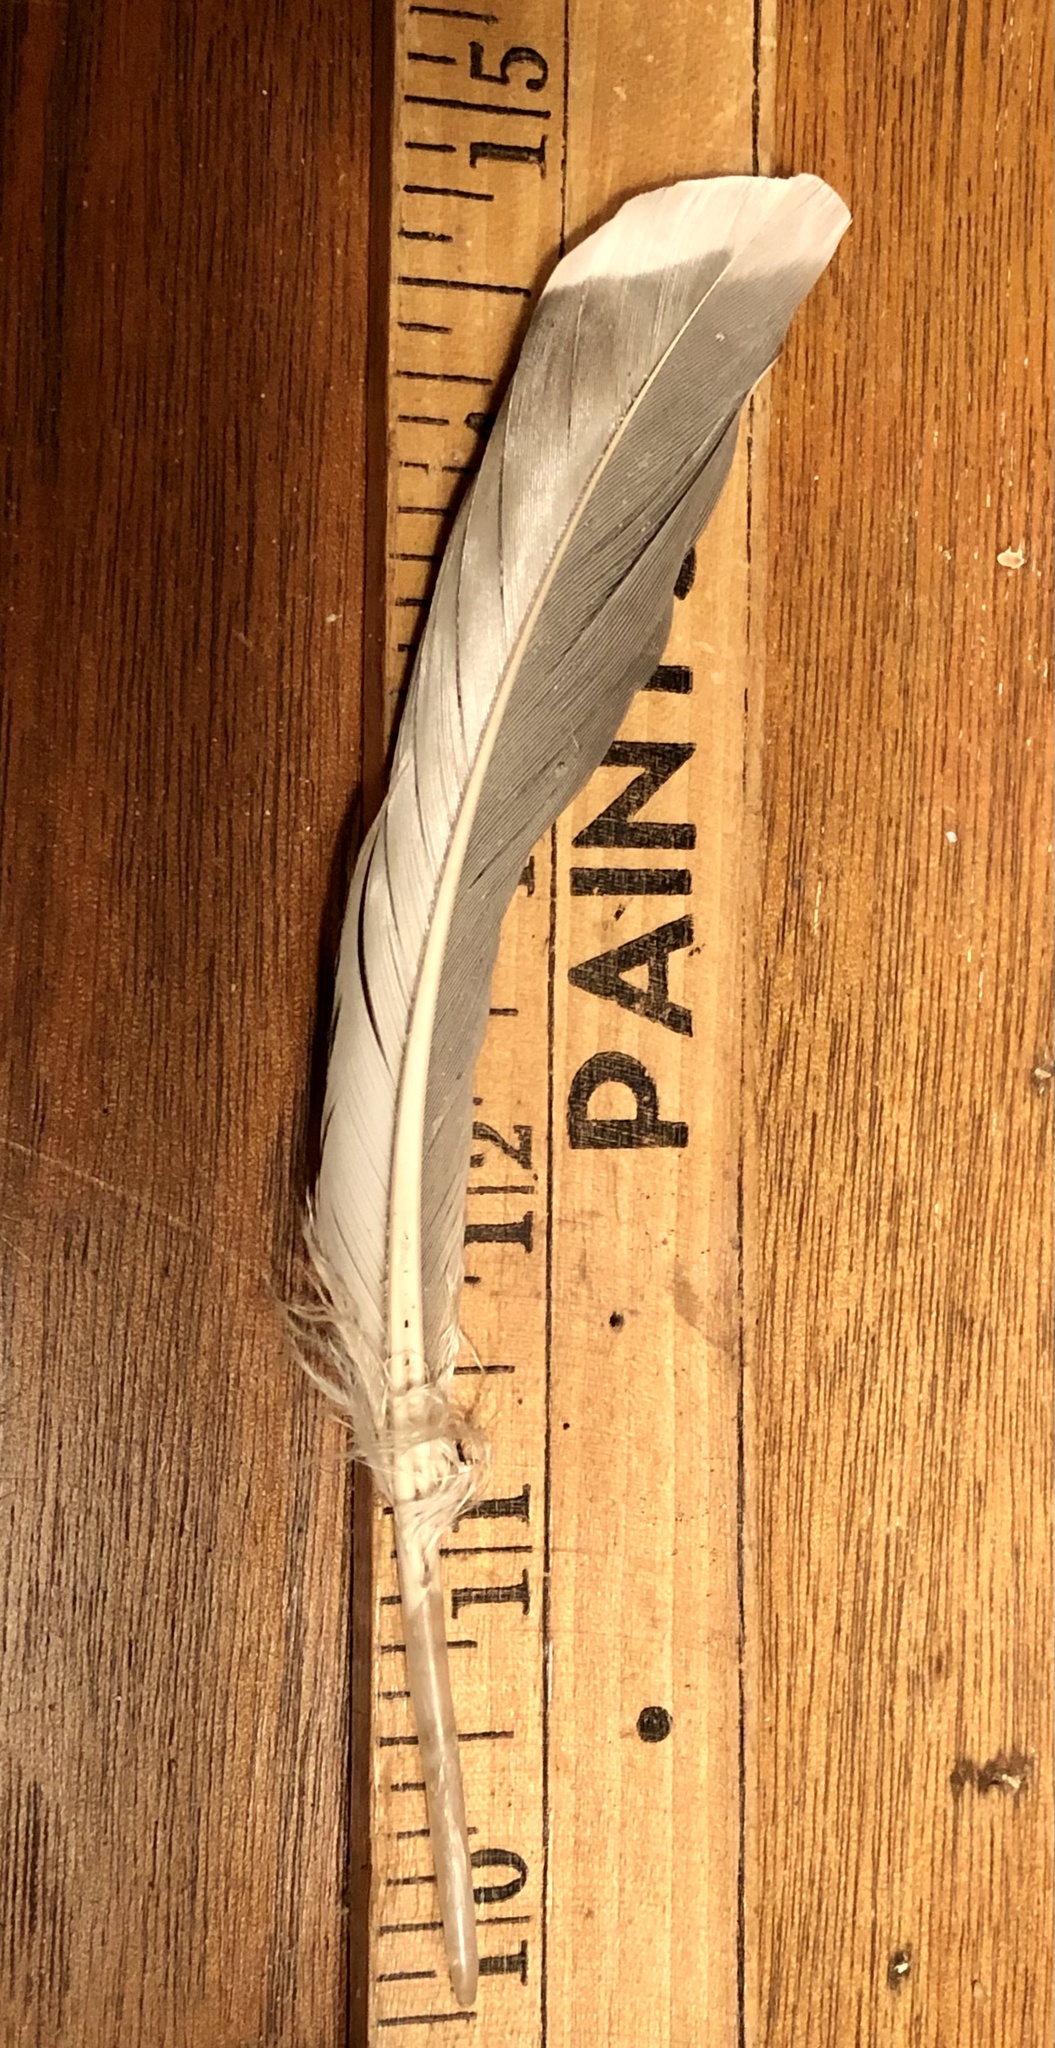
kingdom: Animalia
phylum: Chordata
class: Aves
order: Anseriformes
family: Anatidae
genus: Anas
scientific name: Anas platyrhynchos
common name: Mallard
